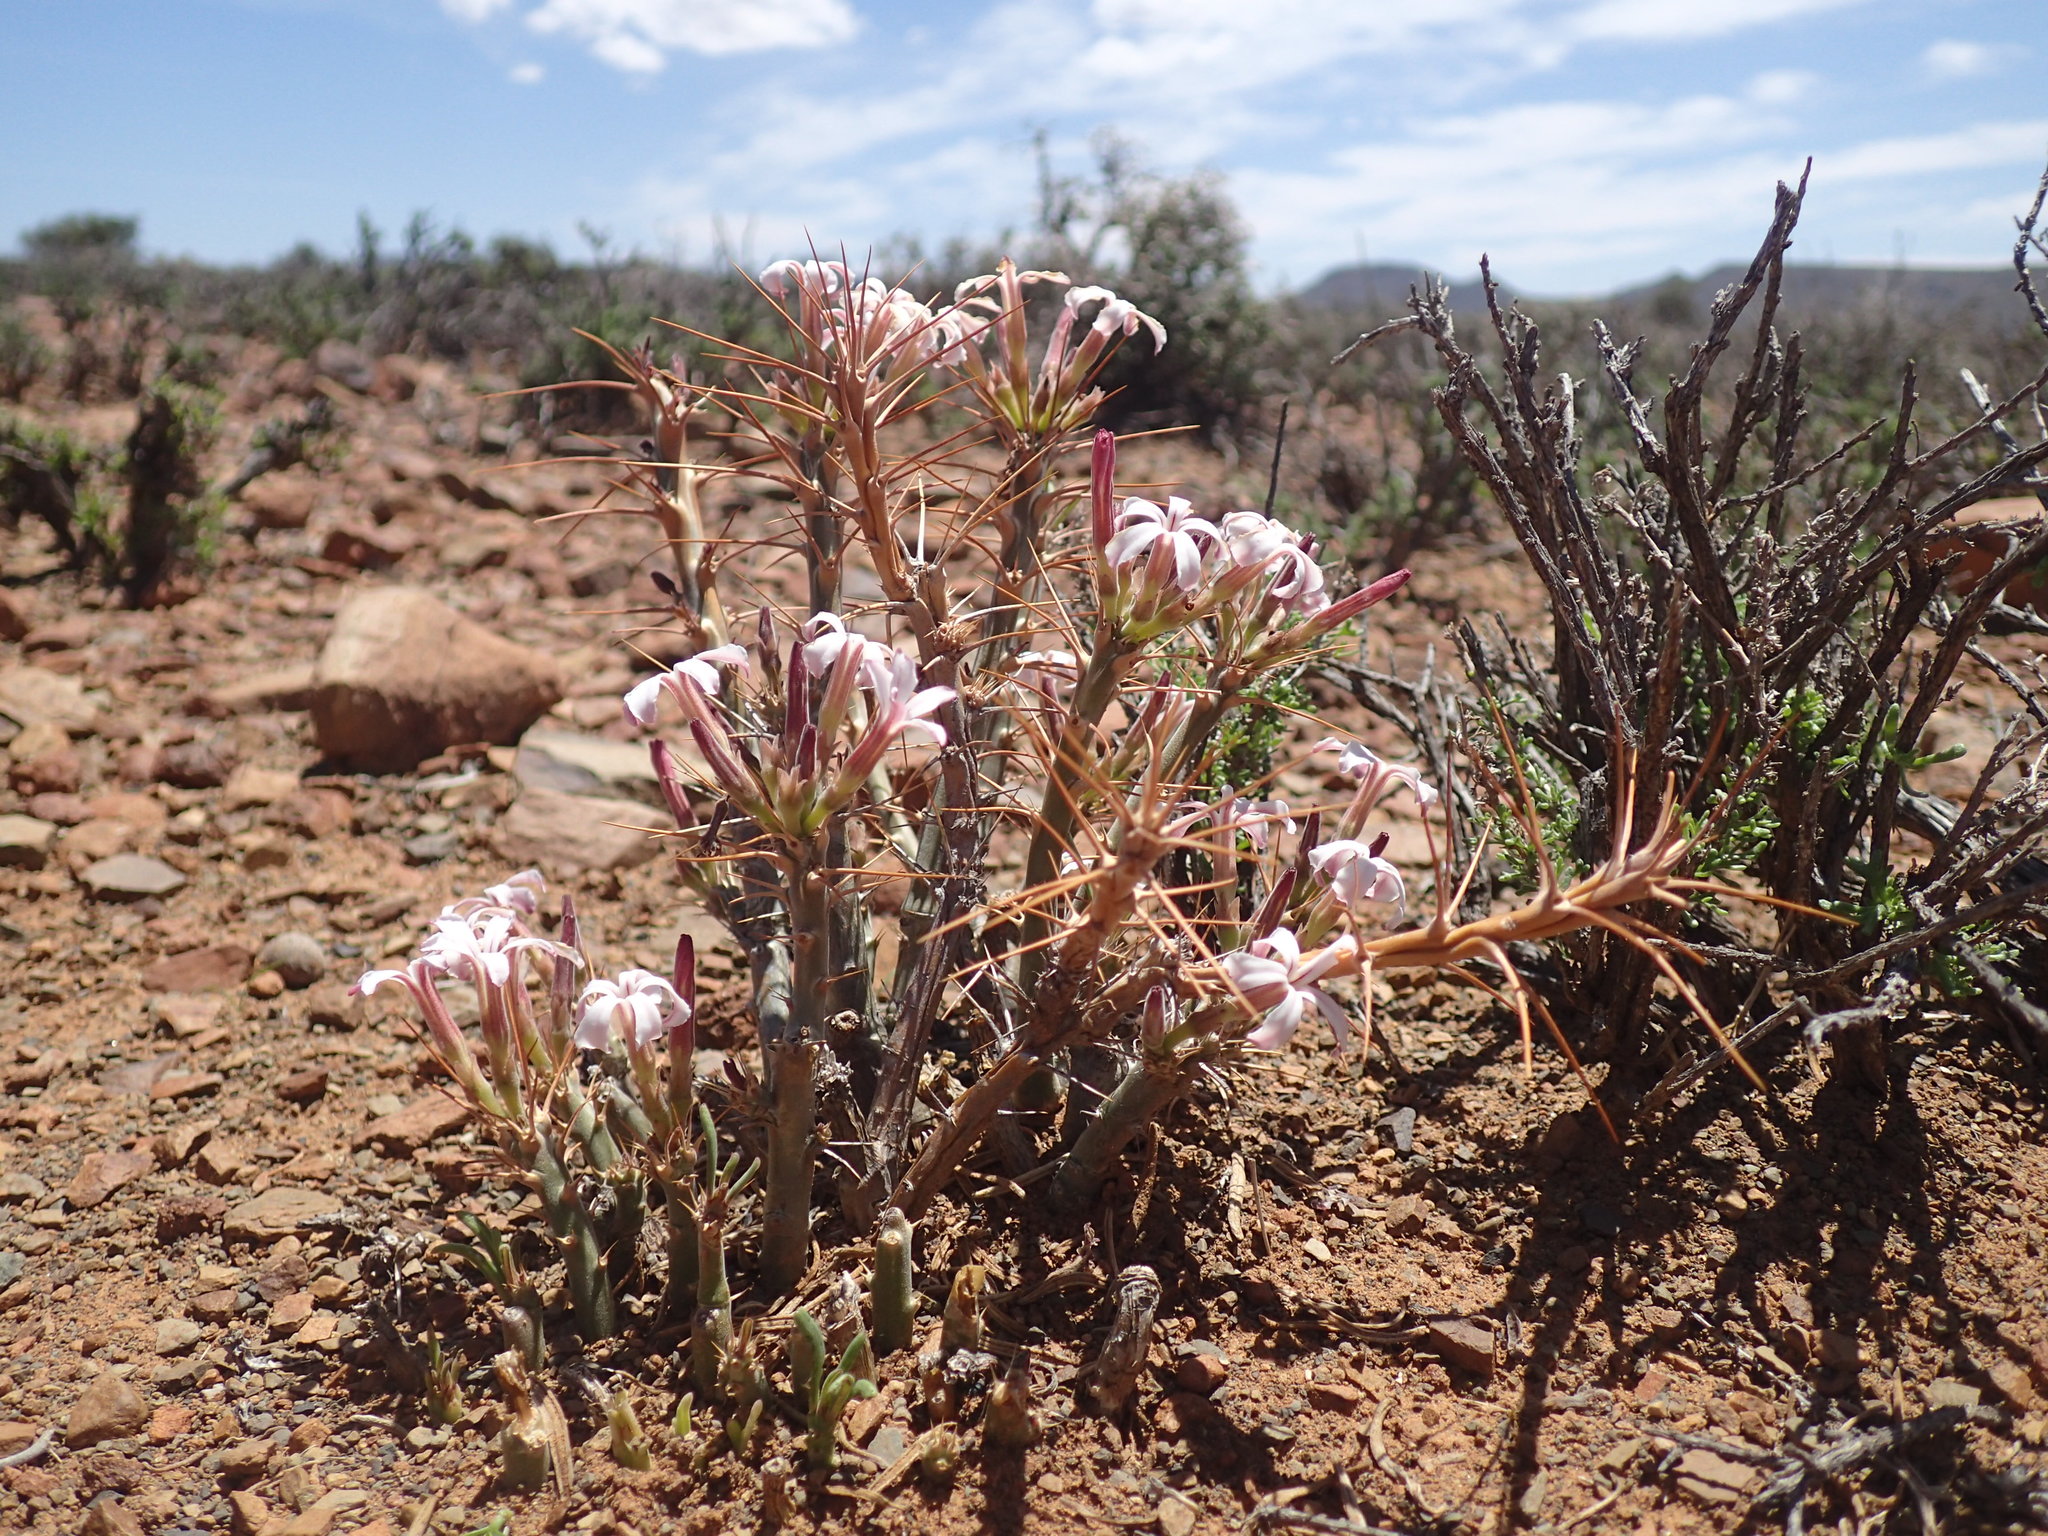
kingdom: Plantae
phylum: Tracheophyta
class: Magnoliopsida
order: Gentianales
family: Apocynaceae
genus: Pachypodium
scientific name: Pachypodium succulentum
